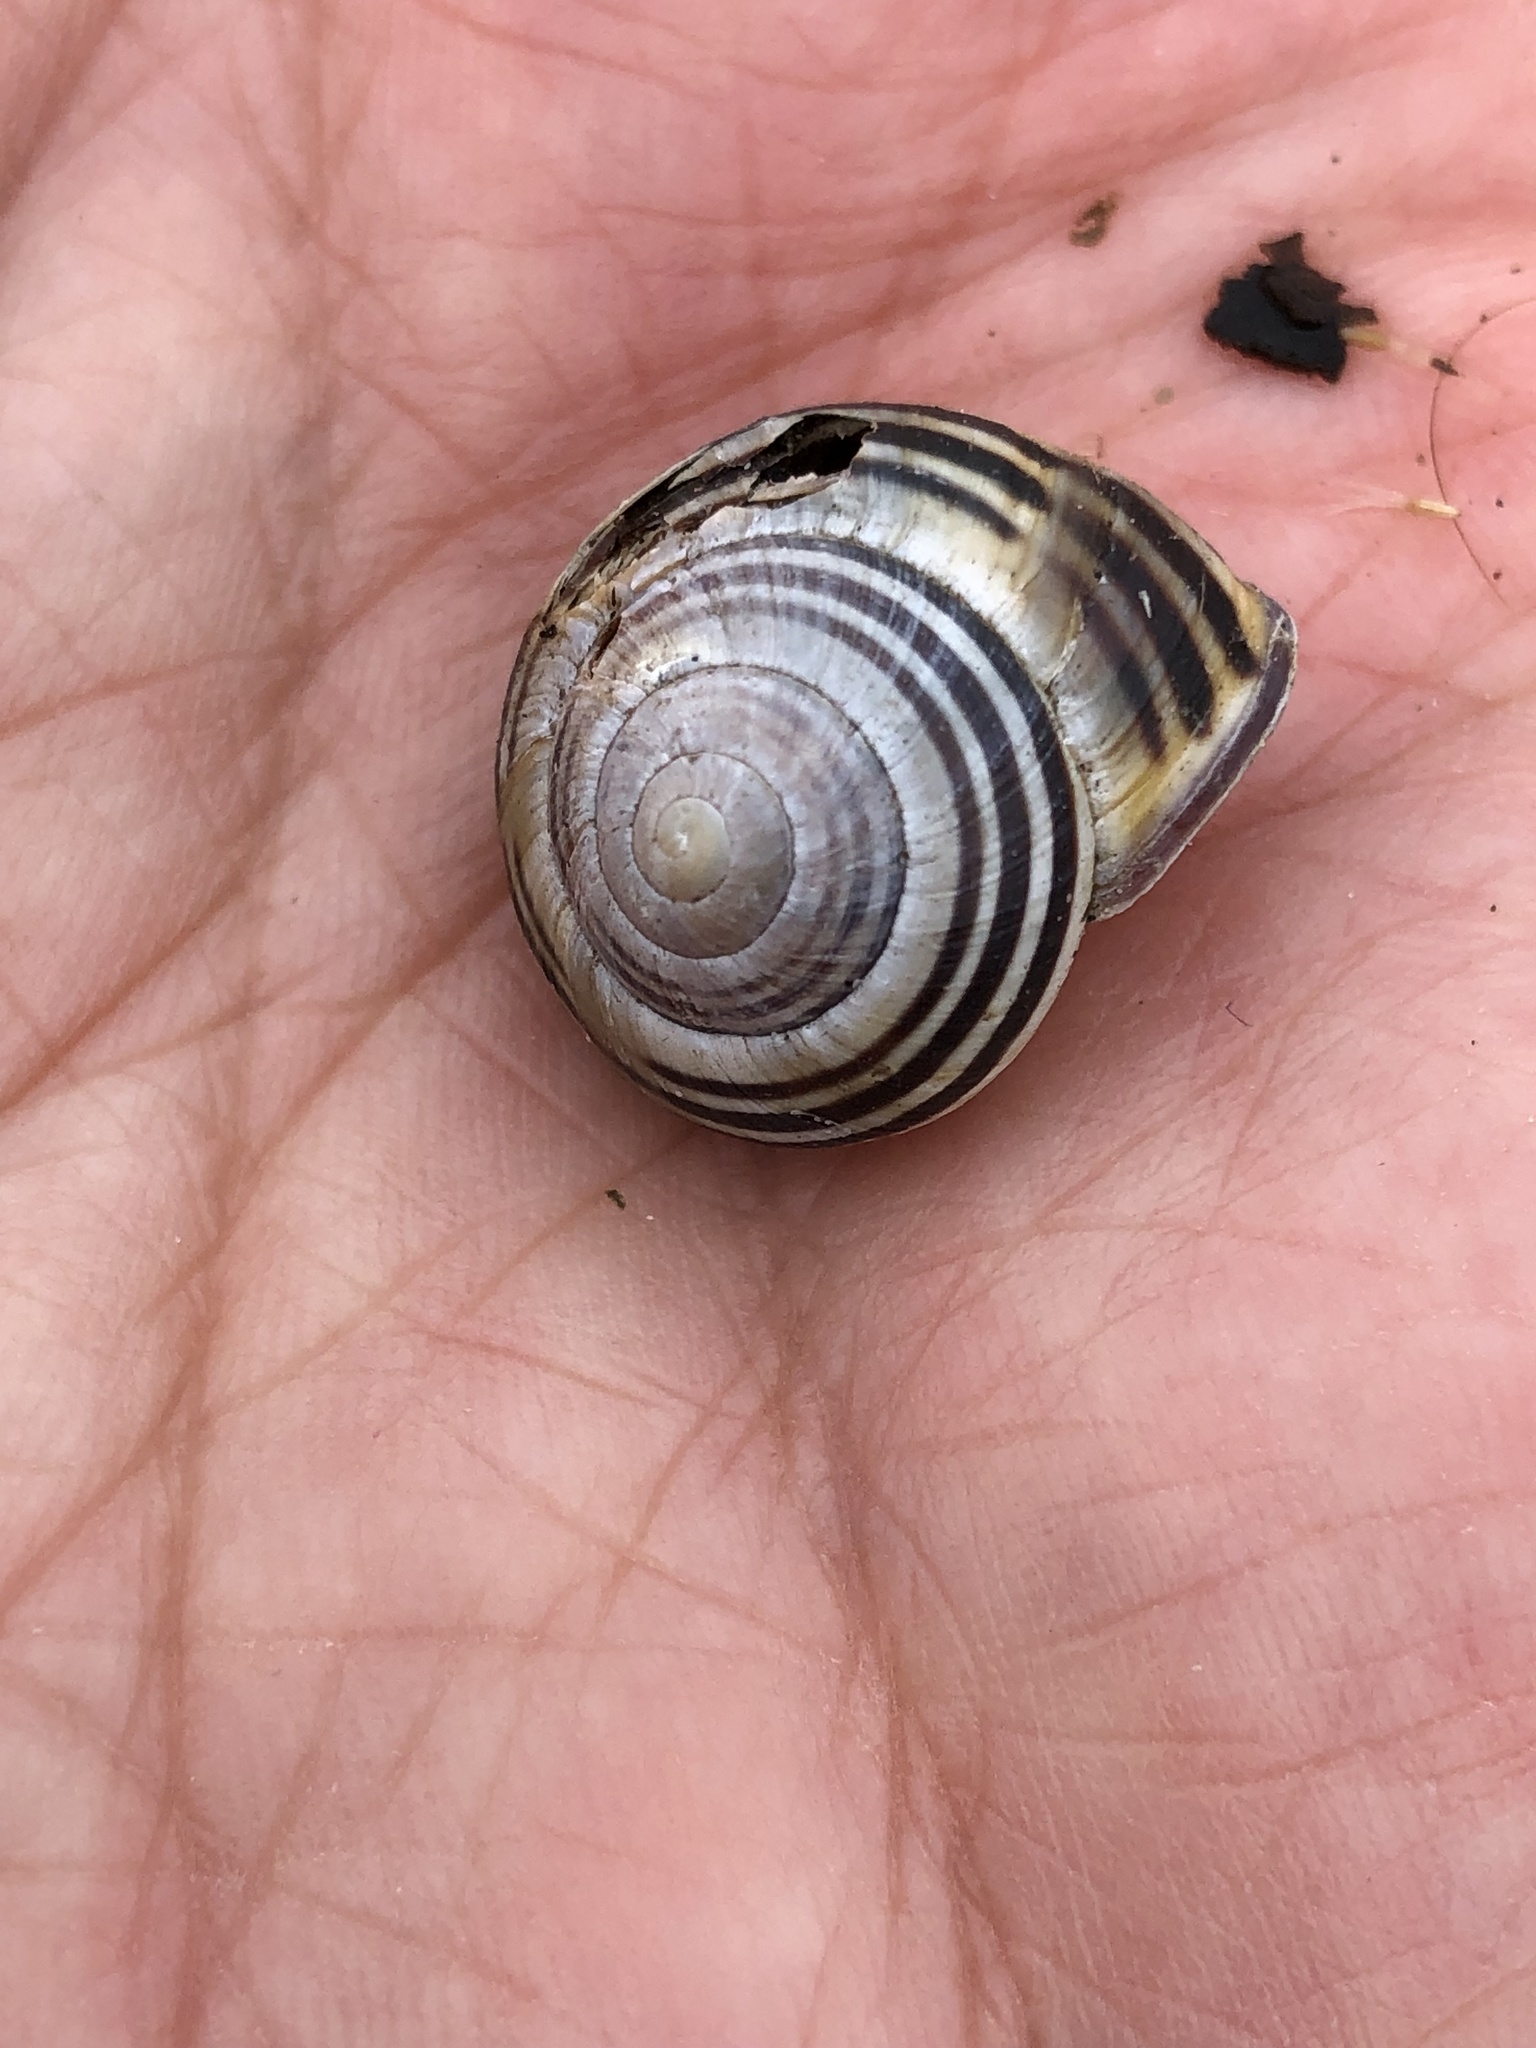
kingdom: Animalia
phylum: Mollusca
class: Gastropoda
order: Stylommatophora
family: Helicidae
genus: Cepaea
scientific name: Cepaea nemoralis
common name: Grovesnail
